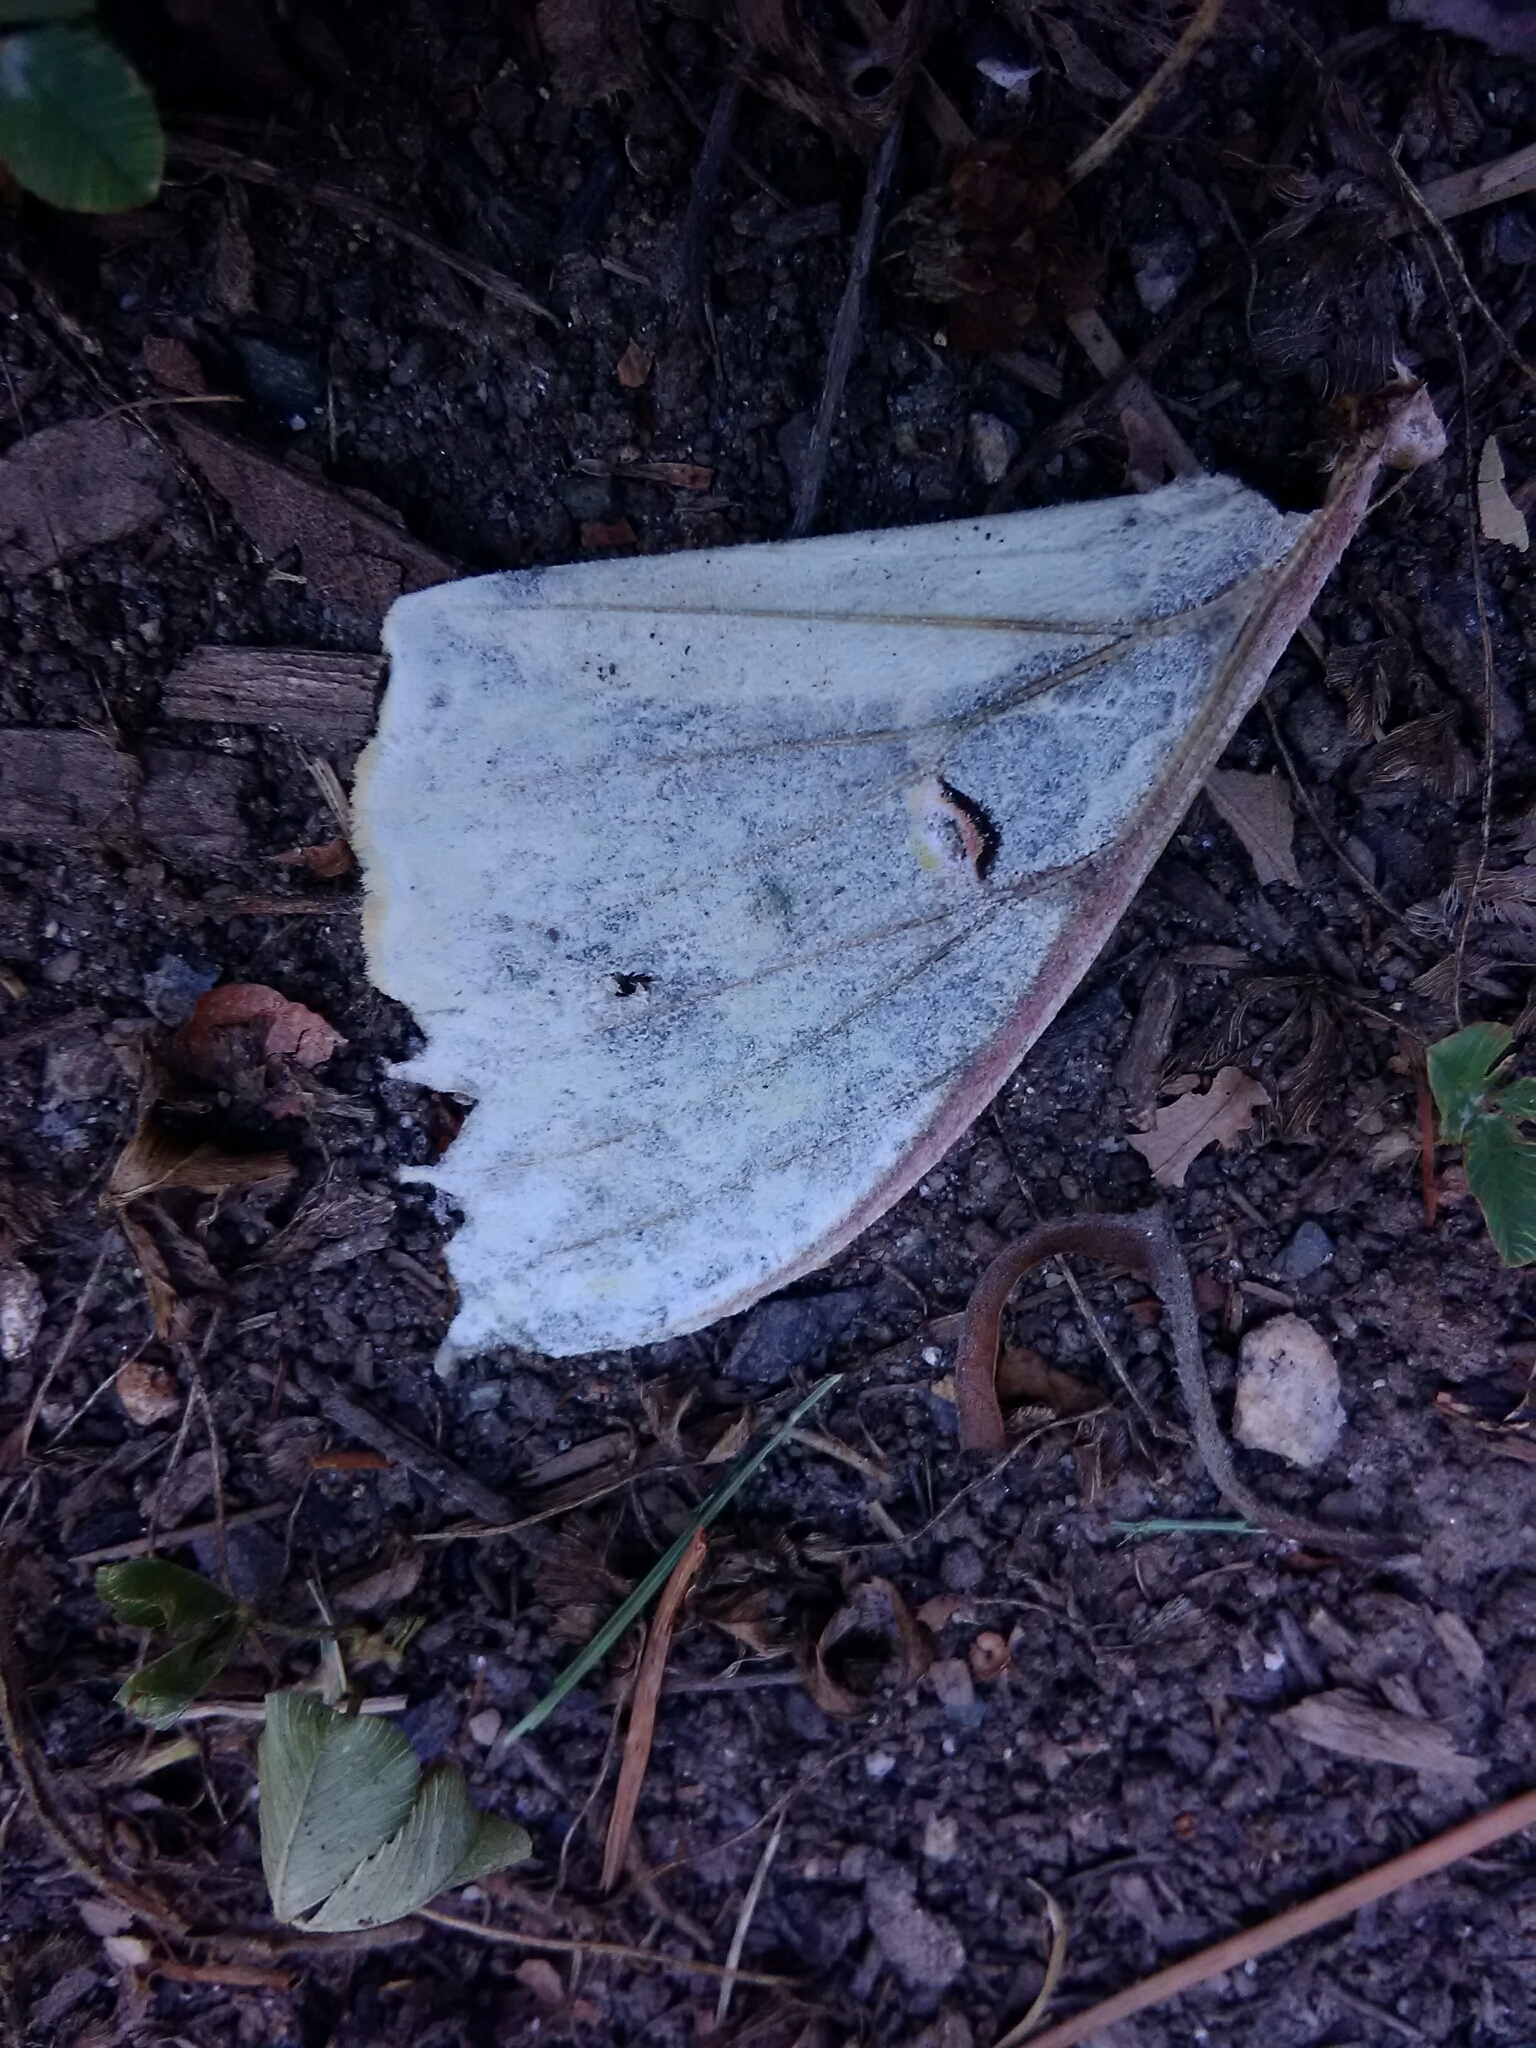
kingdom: Animalia
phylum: Arthropoda
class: Insecta
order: Lepidoptera
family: Saturniidae
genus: Actias
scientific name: Actias luna
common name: Luna moth
